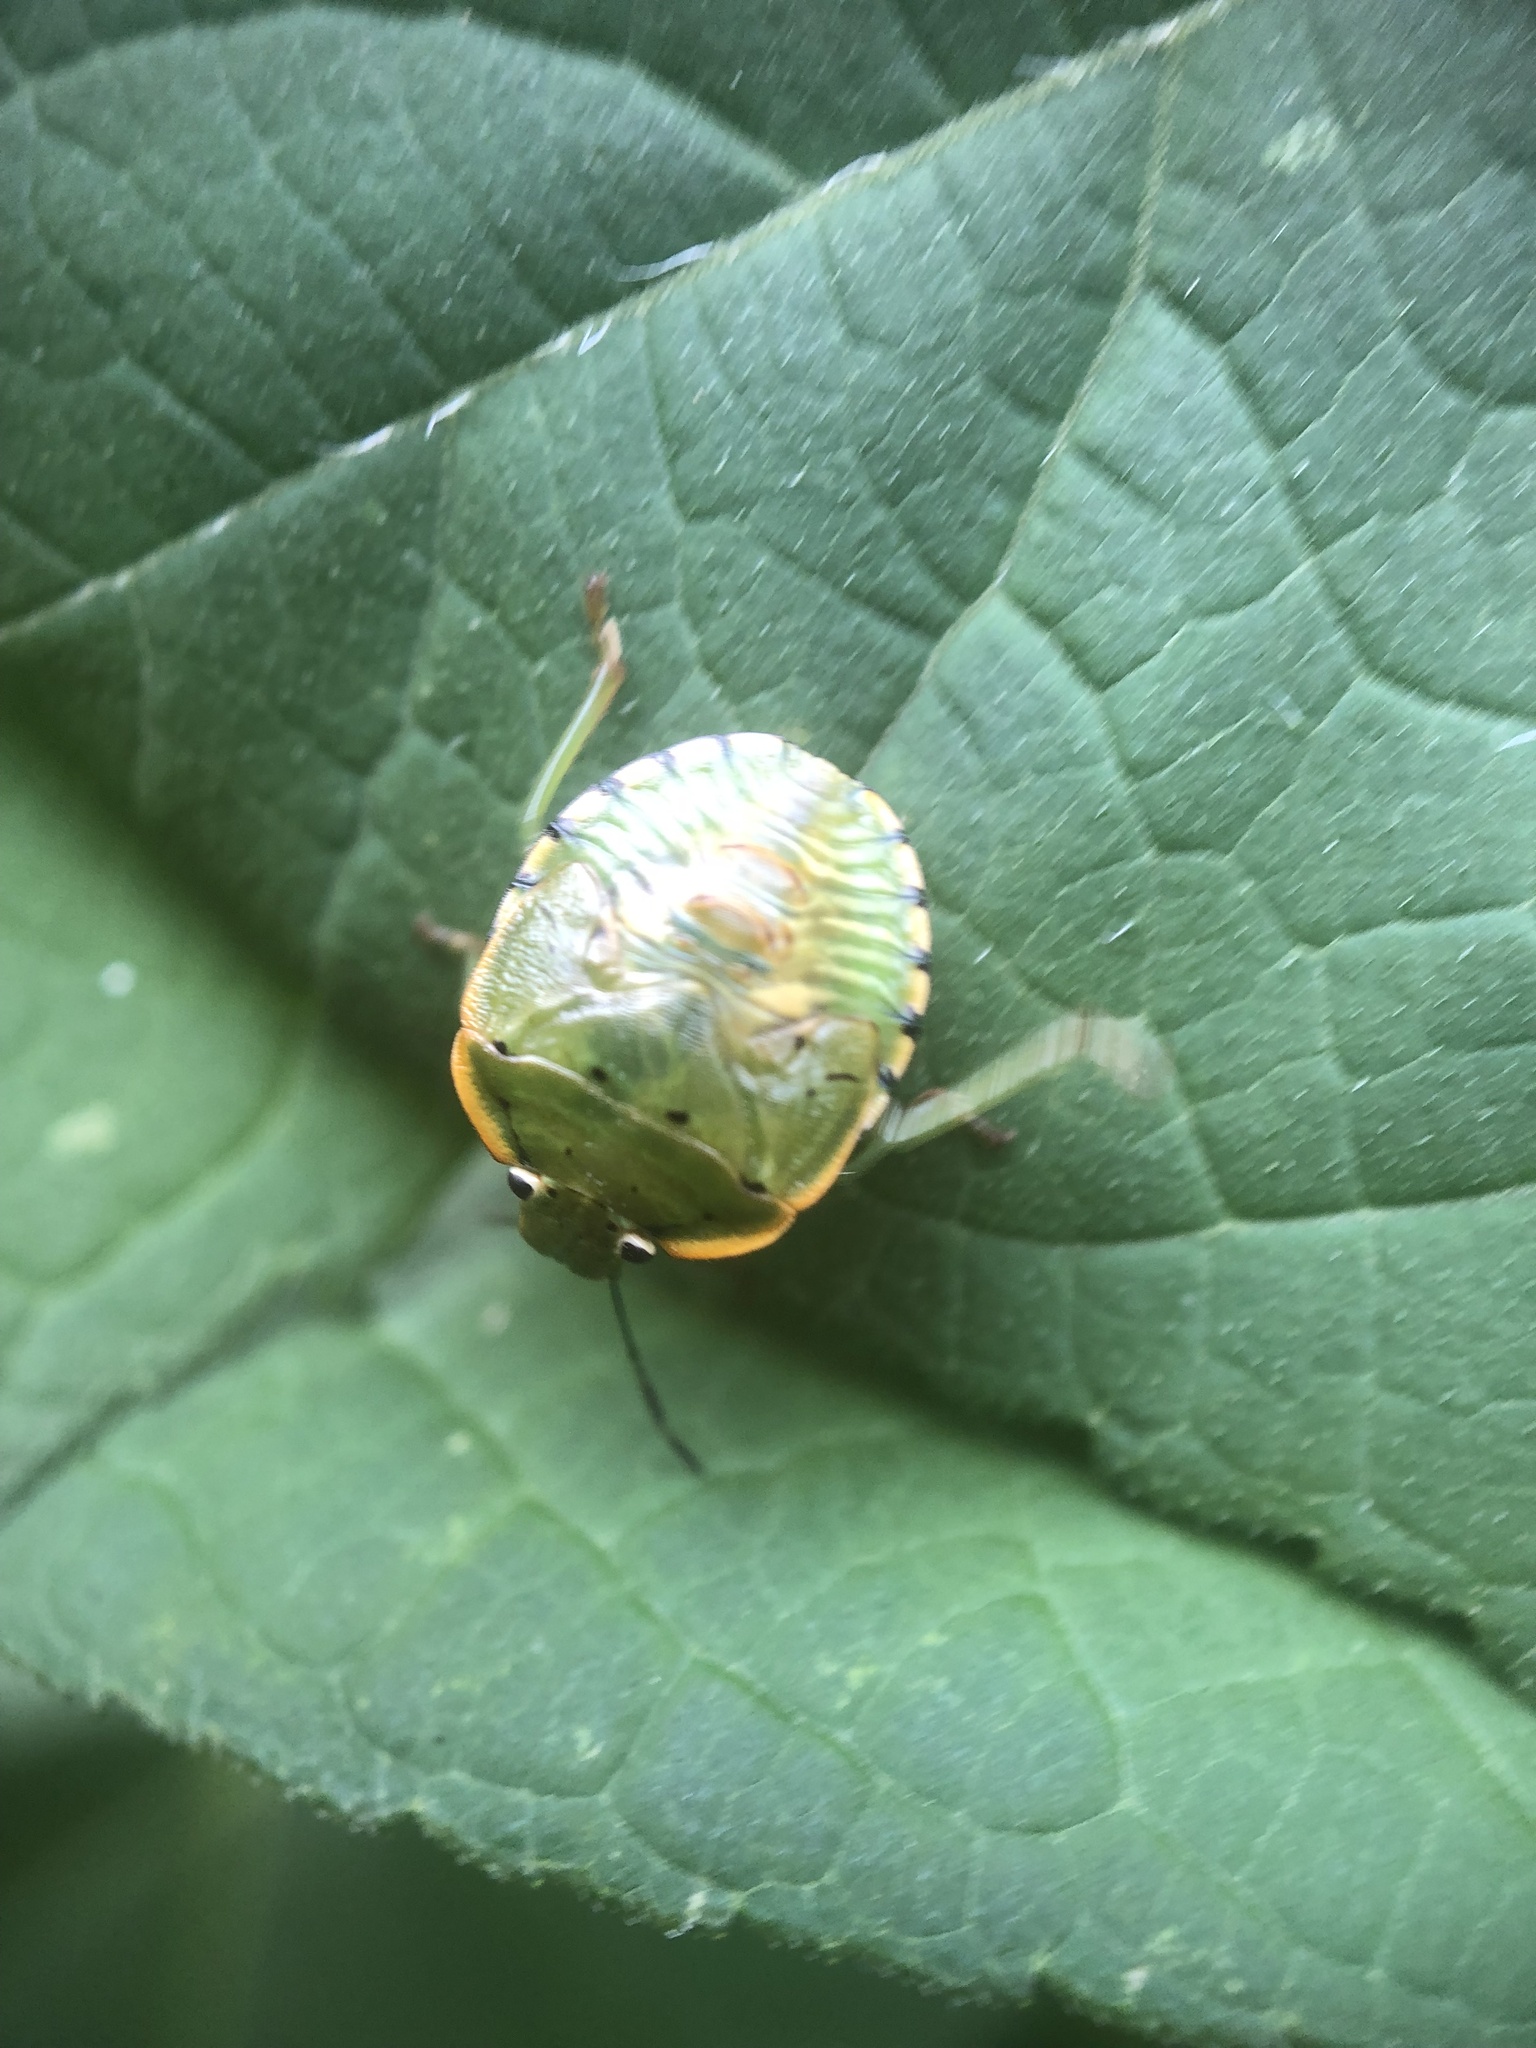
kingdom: Animalia
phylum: Arthropoda
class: Insecta
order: Hemiptera
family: Pentatomidae
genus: Chinavia
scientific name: Chinavia hilaris
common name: Green stink bug
